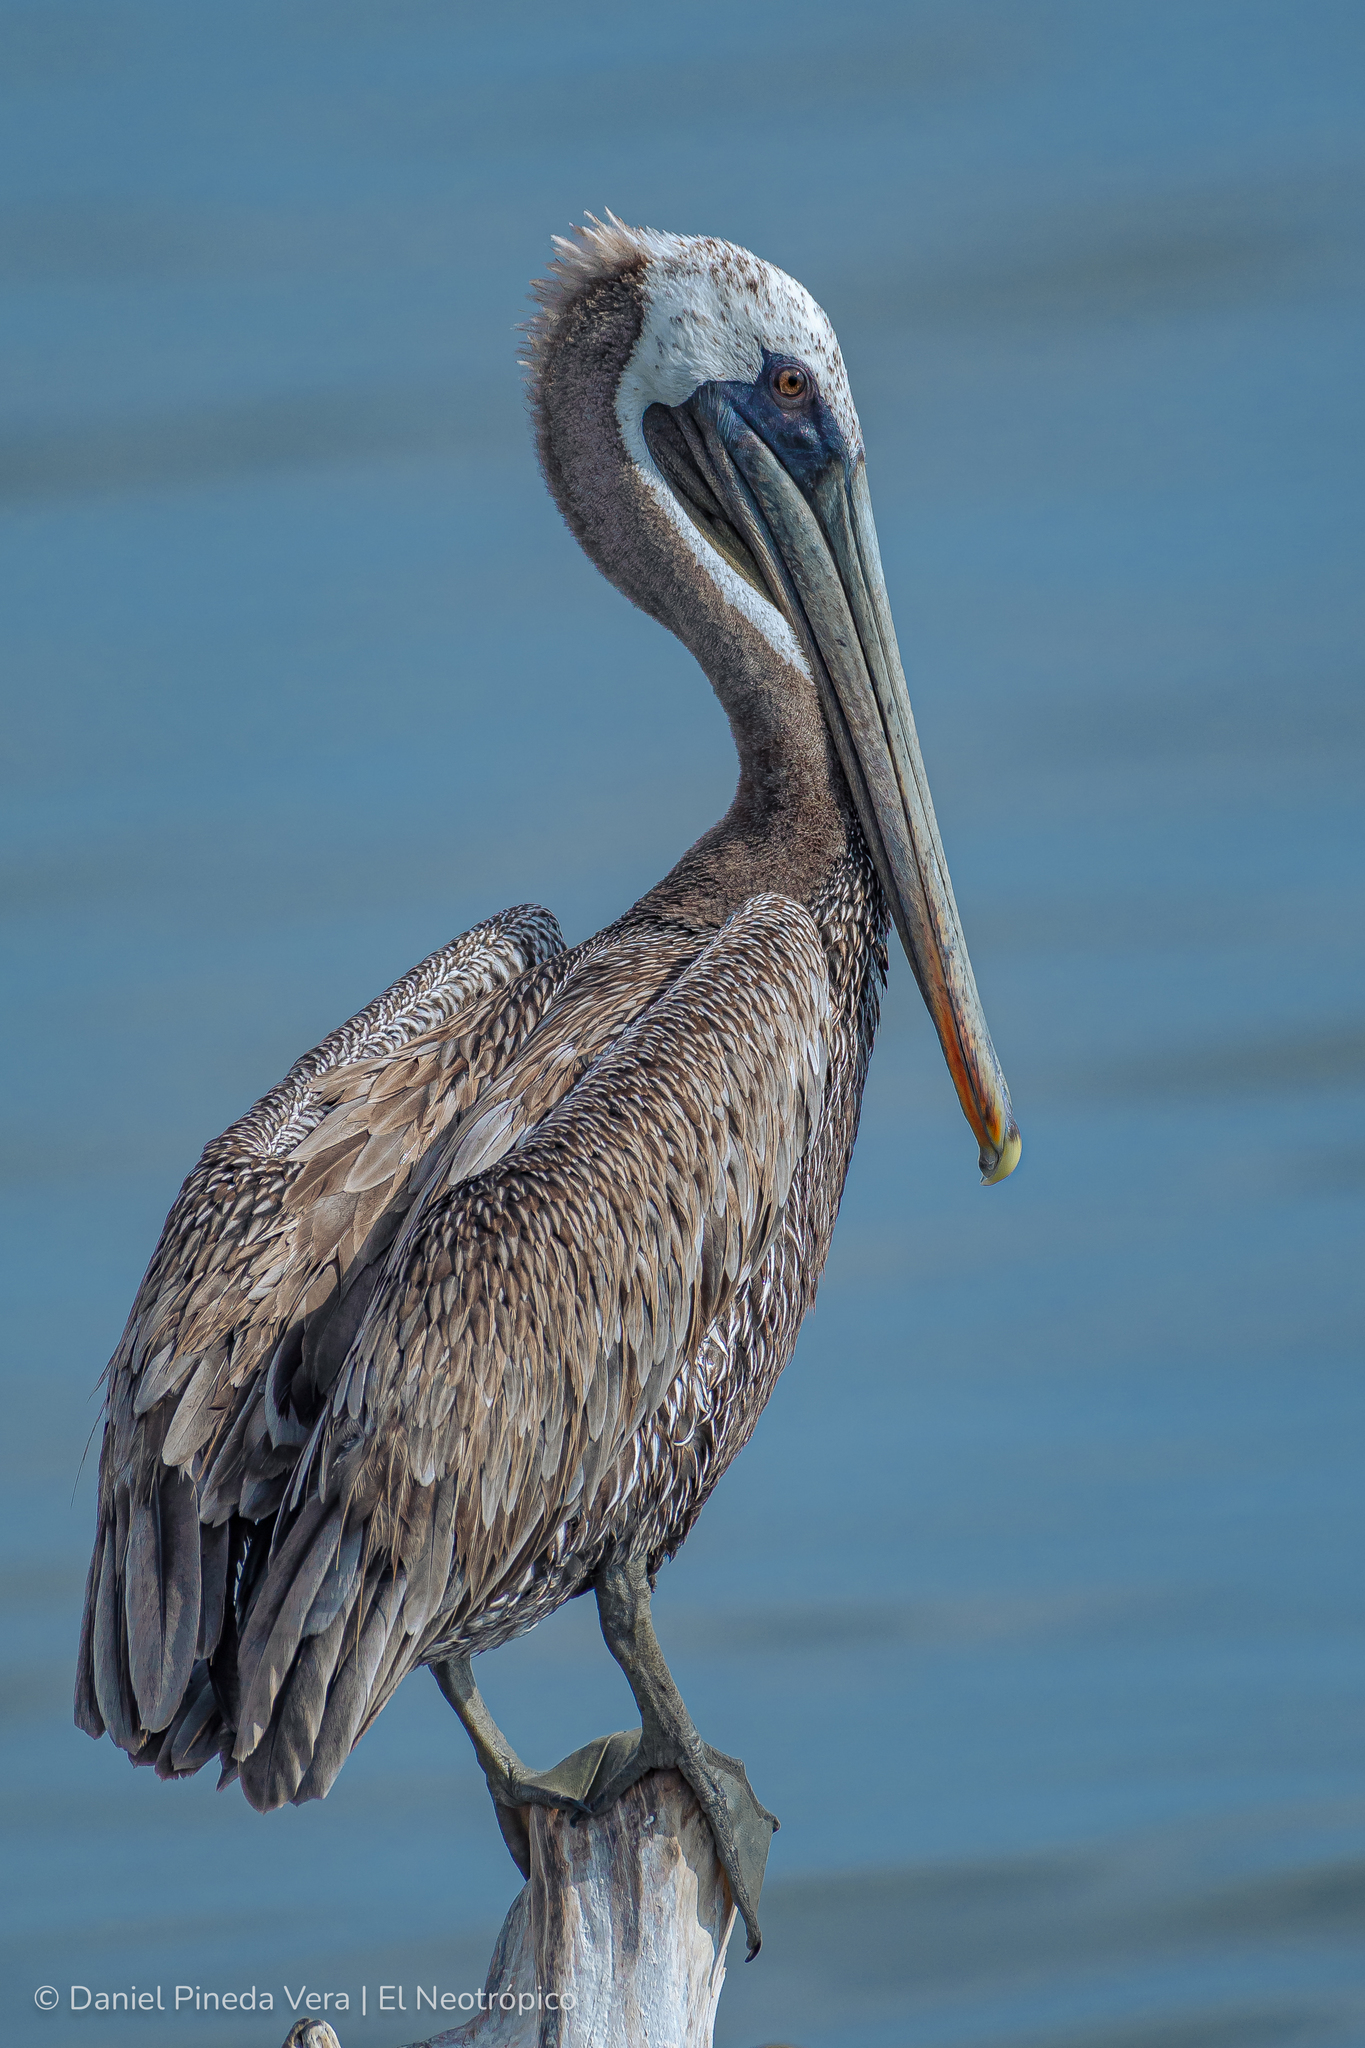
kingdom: Animalia
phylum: Chordata
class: Aves
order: Pelecaniformes
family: Pelecanidae
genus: Pelecanus
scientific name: Pelecanus occidentalis
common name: Brown pelican
